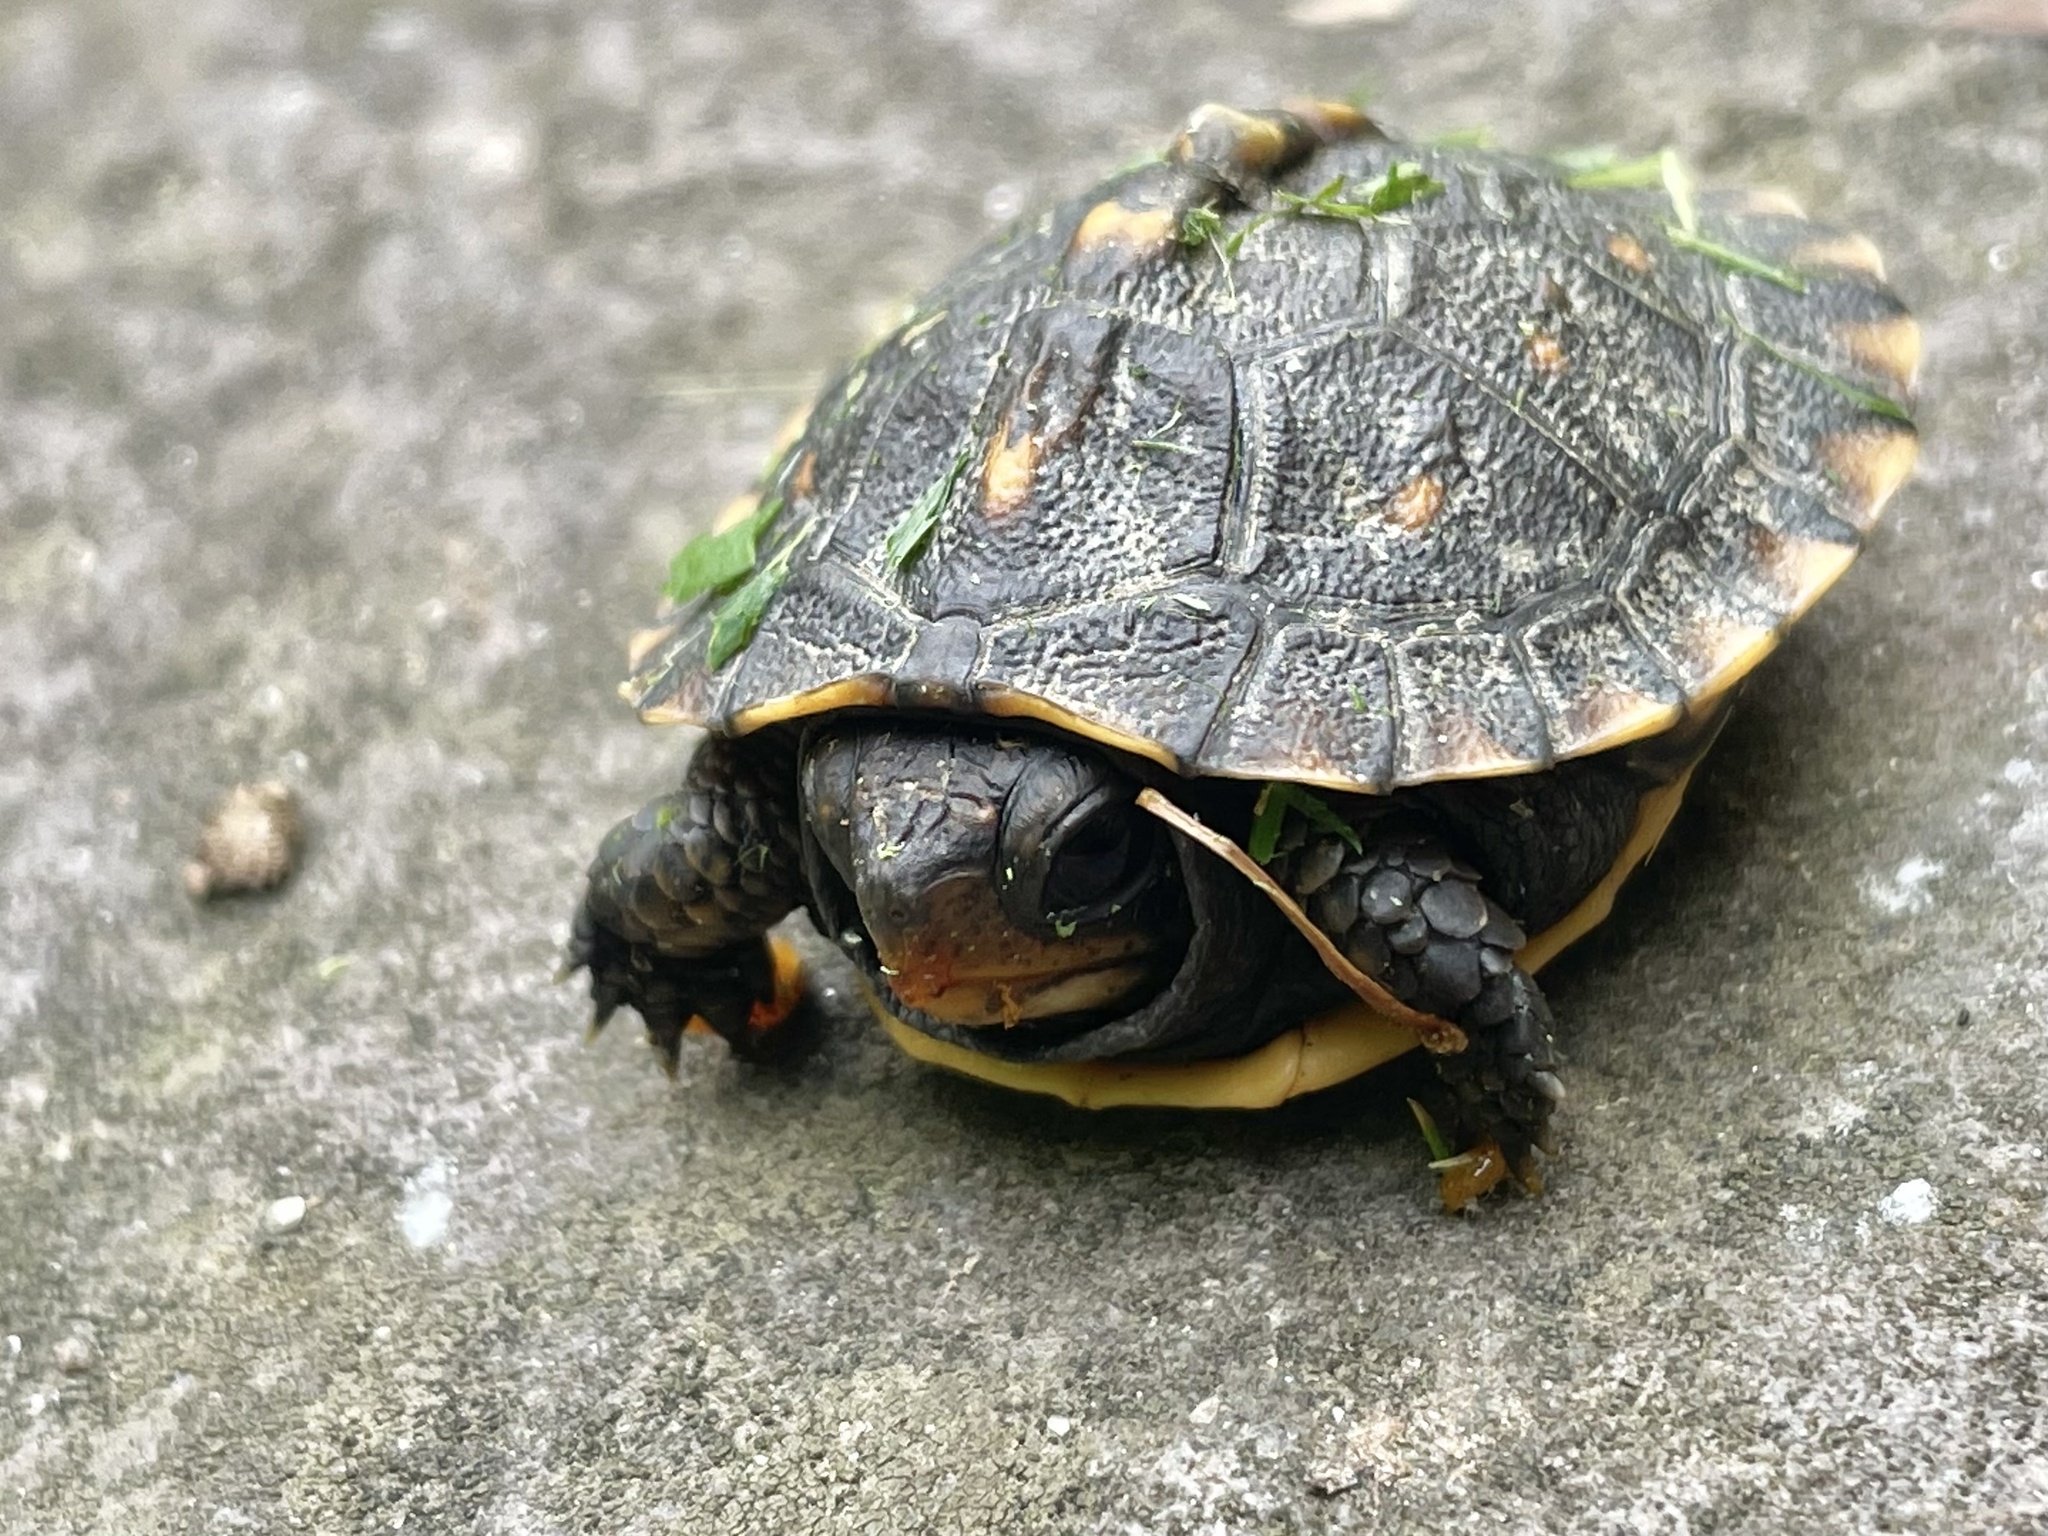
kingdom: Animalia
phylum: Chordata
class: Testudines
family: Emydidae
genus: Terrapene
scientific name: Terrapene carolina
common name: Common box turtle
